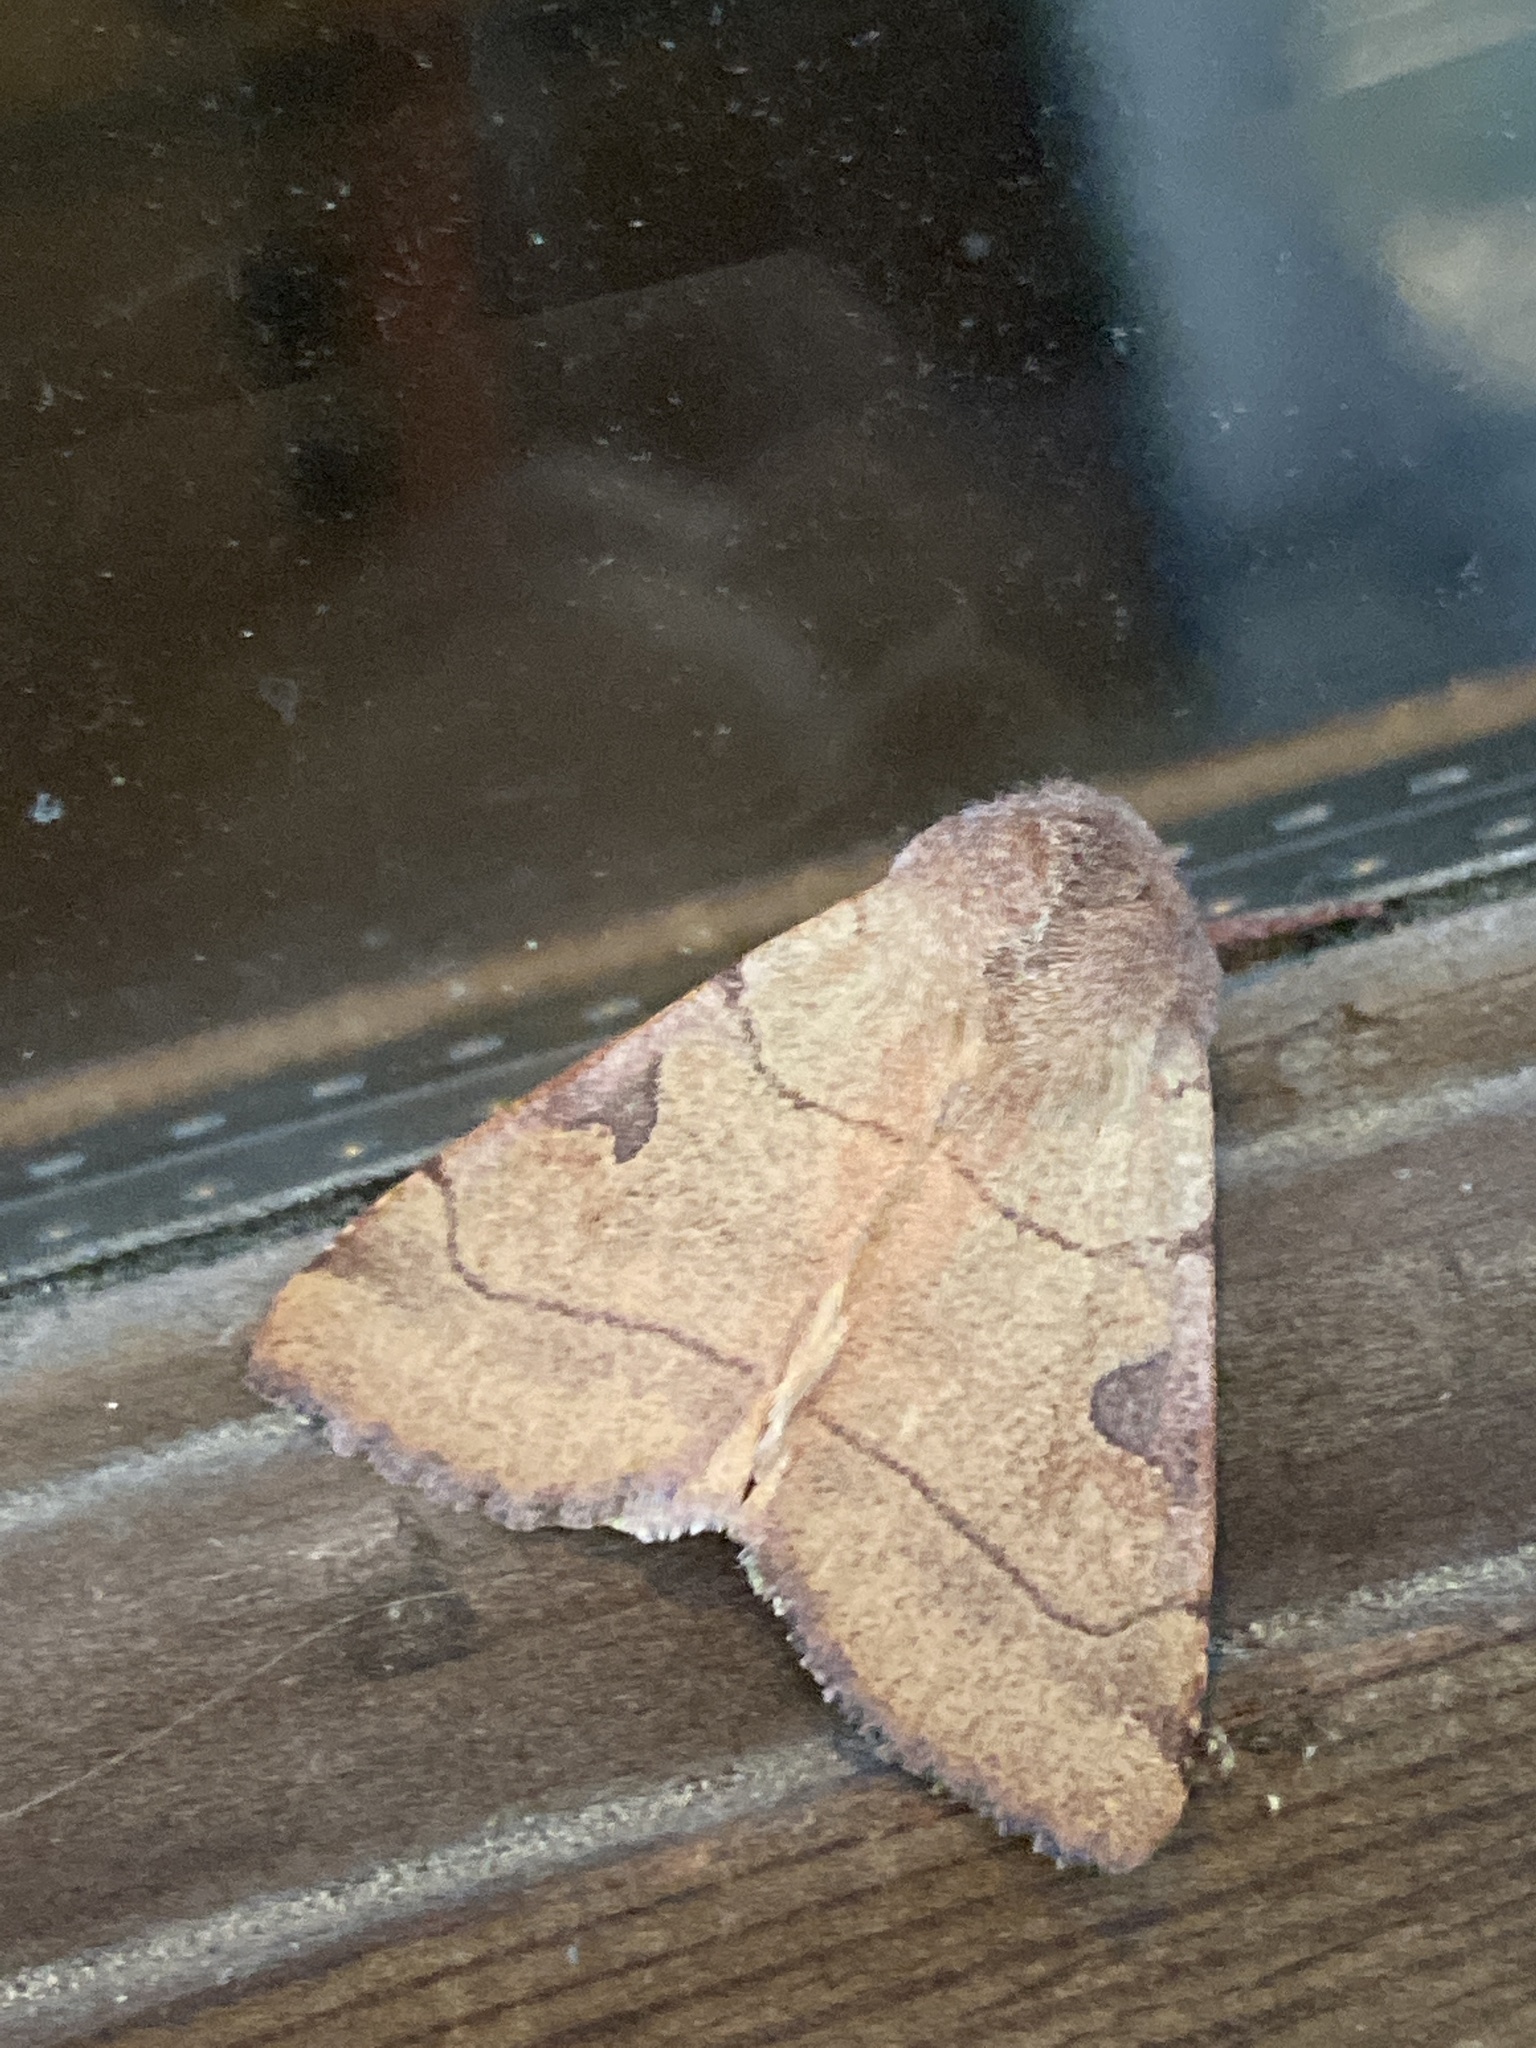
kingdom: Animalia
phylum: Arthropoda
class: Insecta
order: Lepidoptera
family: Noctuidae
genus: Choephora
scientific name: Choephora fungorum
